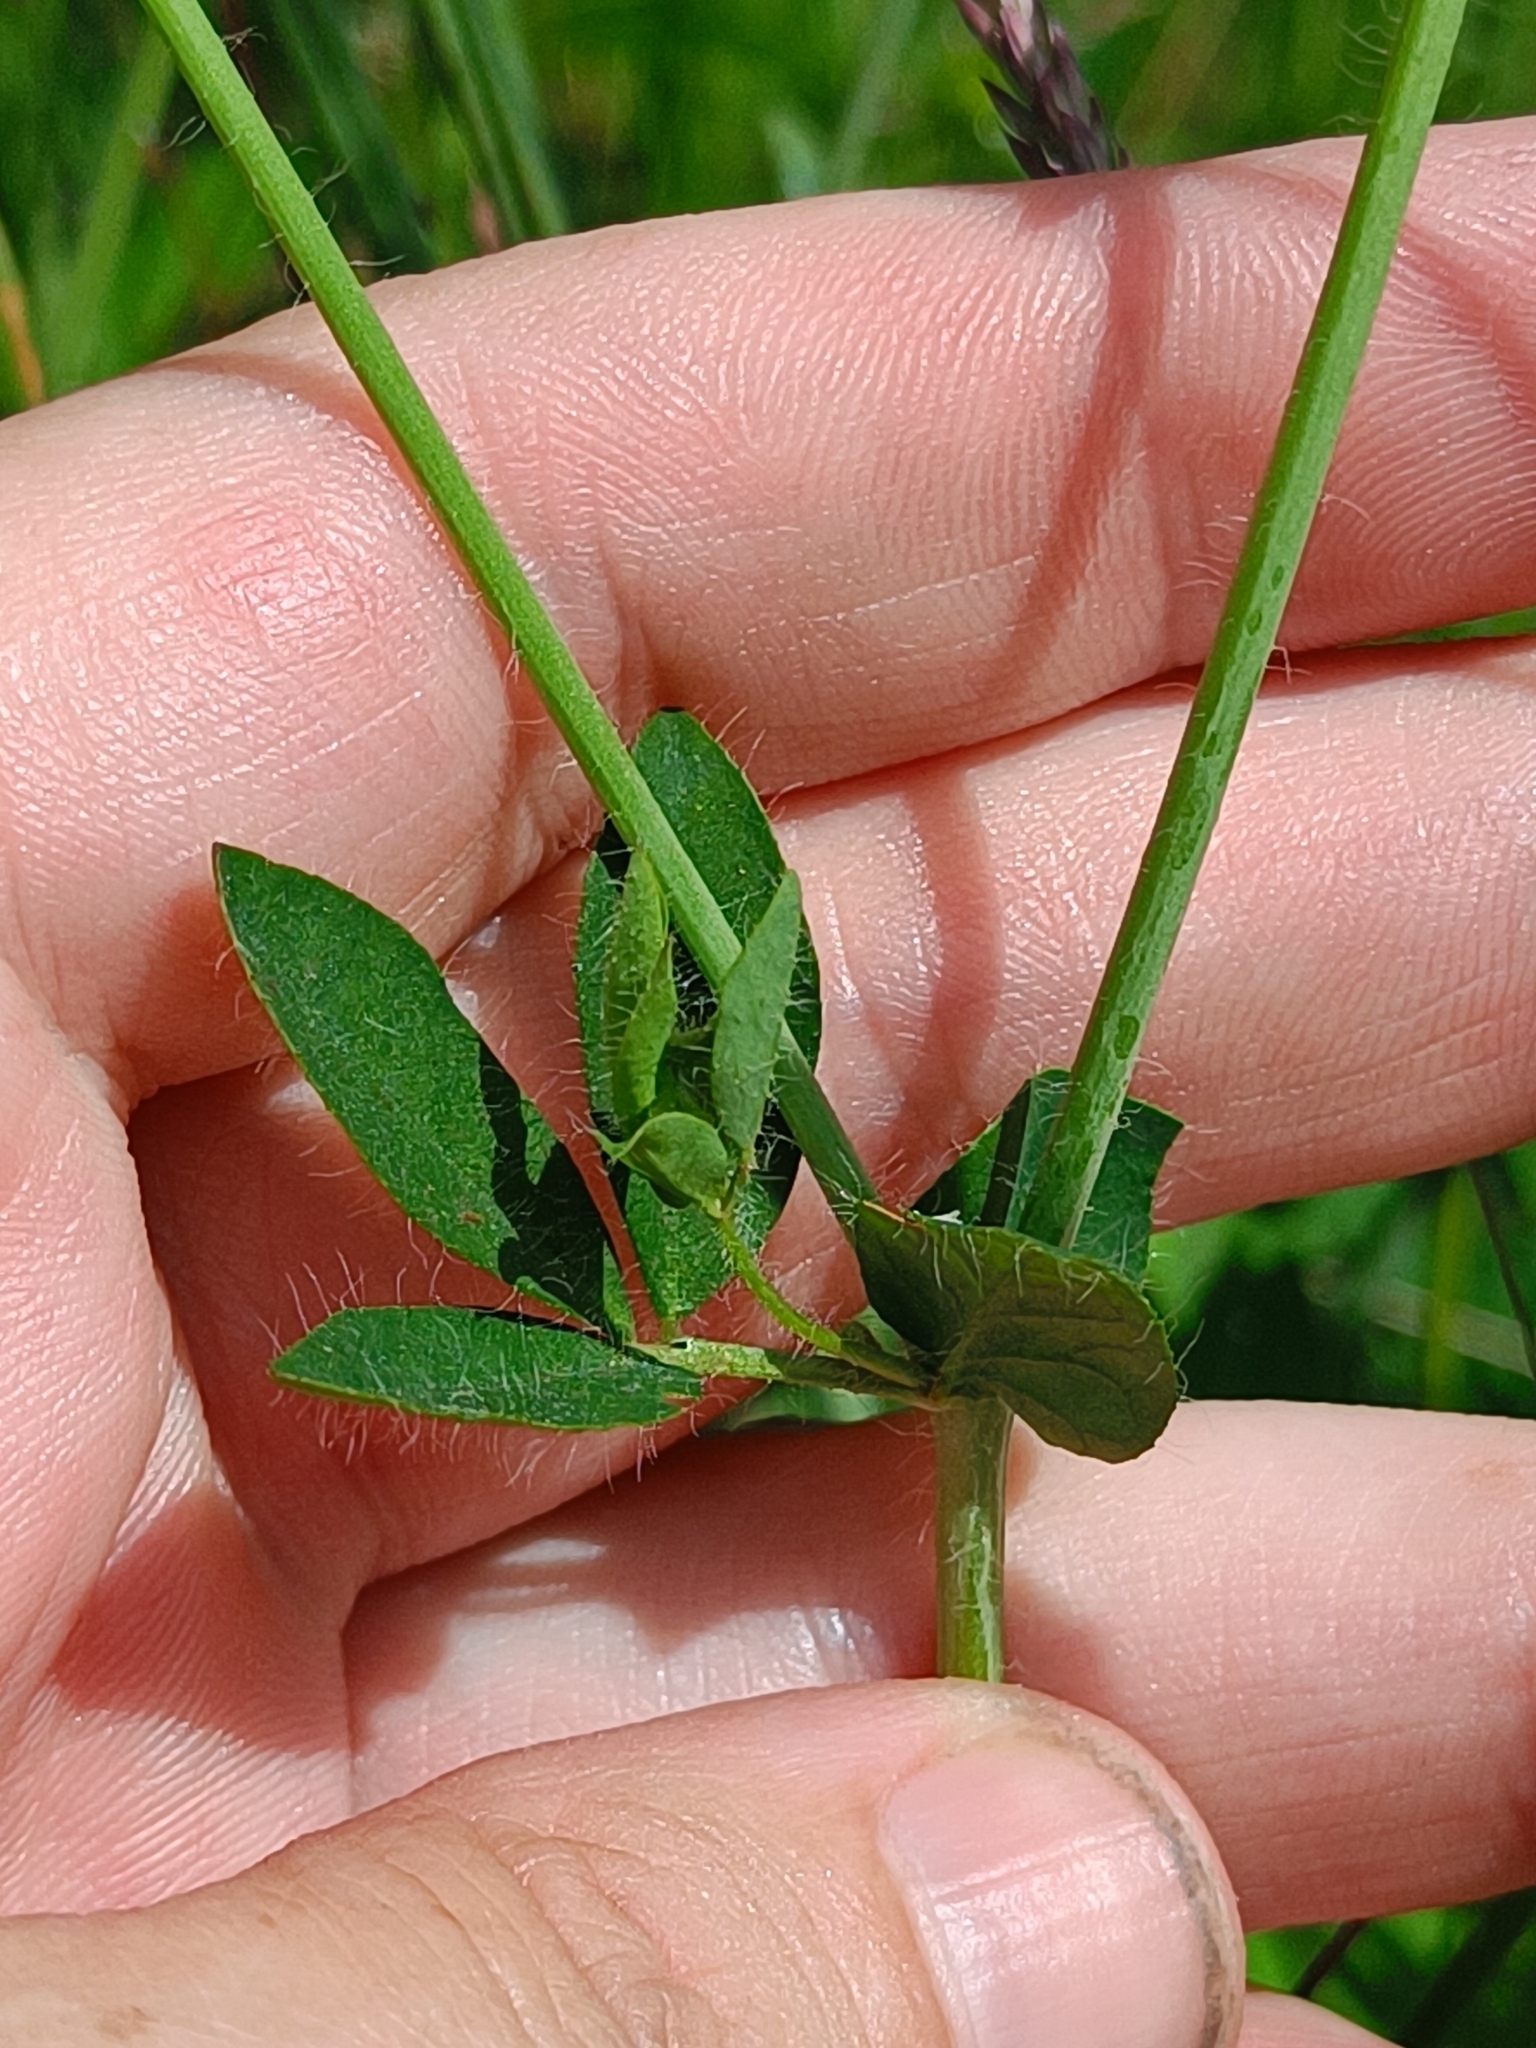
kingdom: Plantae
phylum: Tracheophyta
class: Magnoliopsida
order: Fabales
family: Fabaceae
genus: Lotus
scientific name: Lotus pedunculatus
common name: Greater birdsfoot-trefoil
